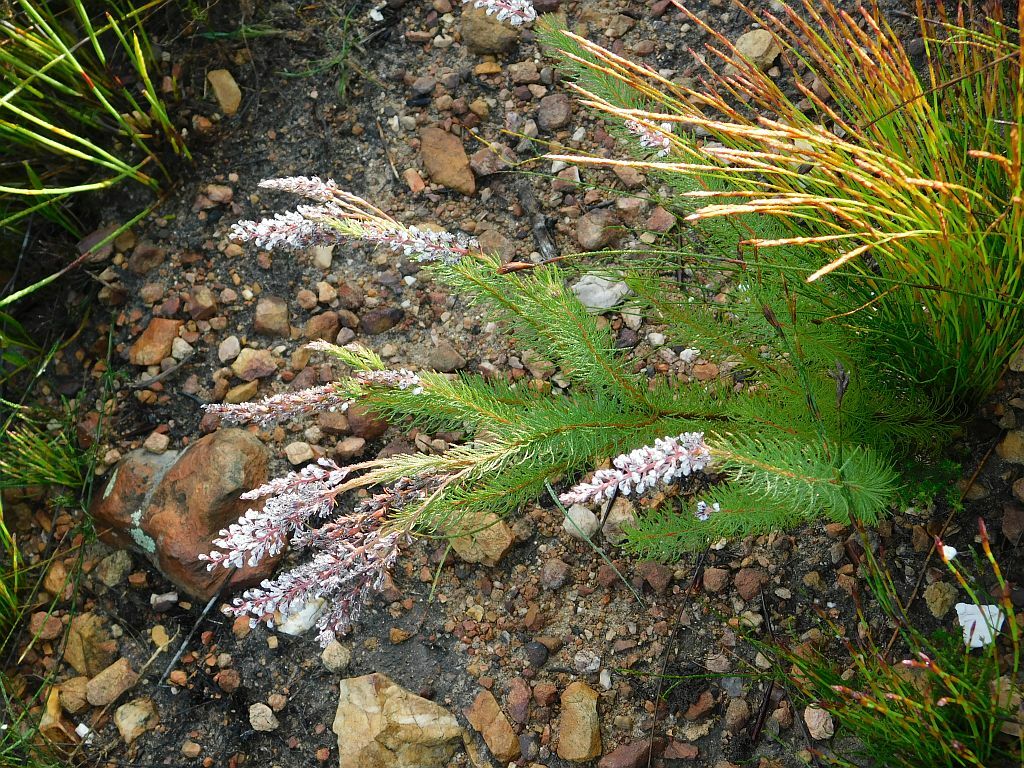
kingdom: Plantae
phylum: Tracheophyta
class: Magnoliopsida
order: Proteales
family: Proteaceae
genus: Spatalla
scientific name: Spatalla propinqua
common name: Lax spoon
